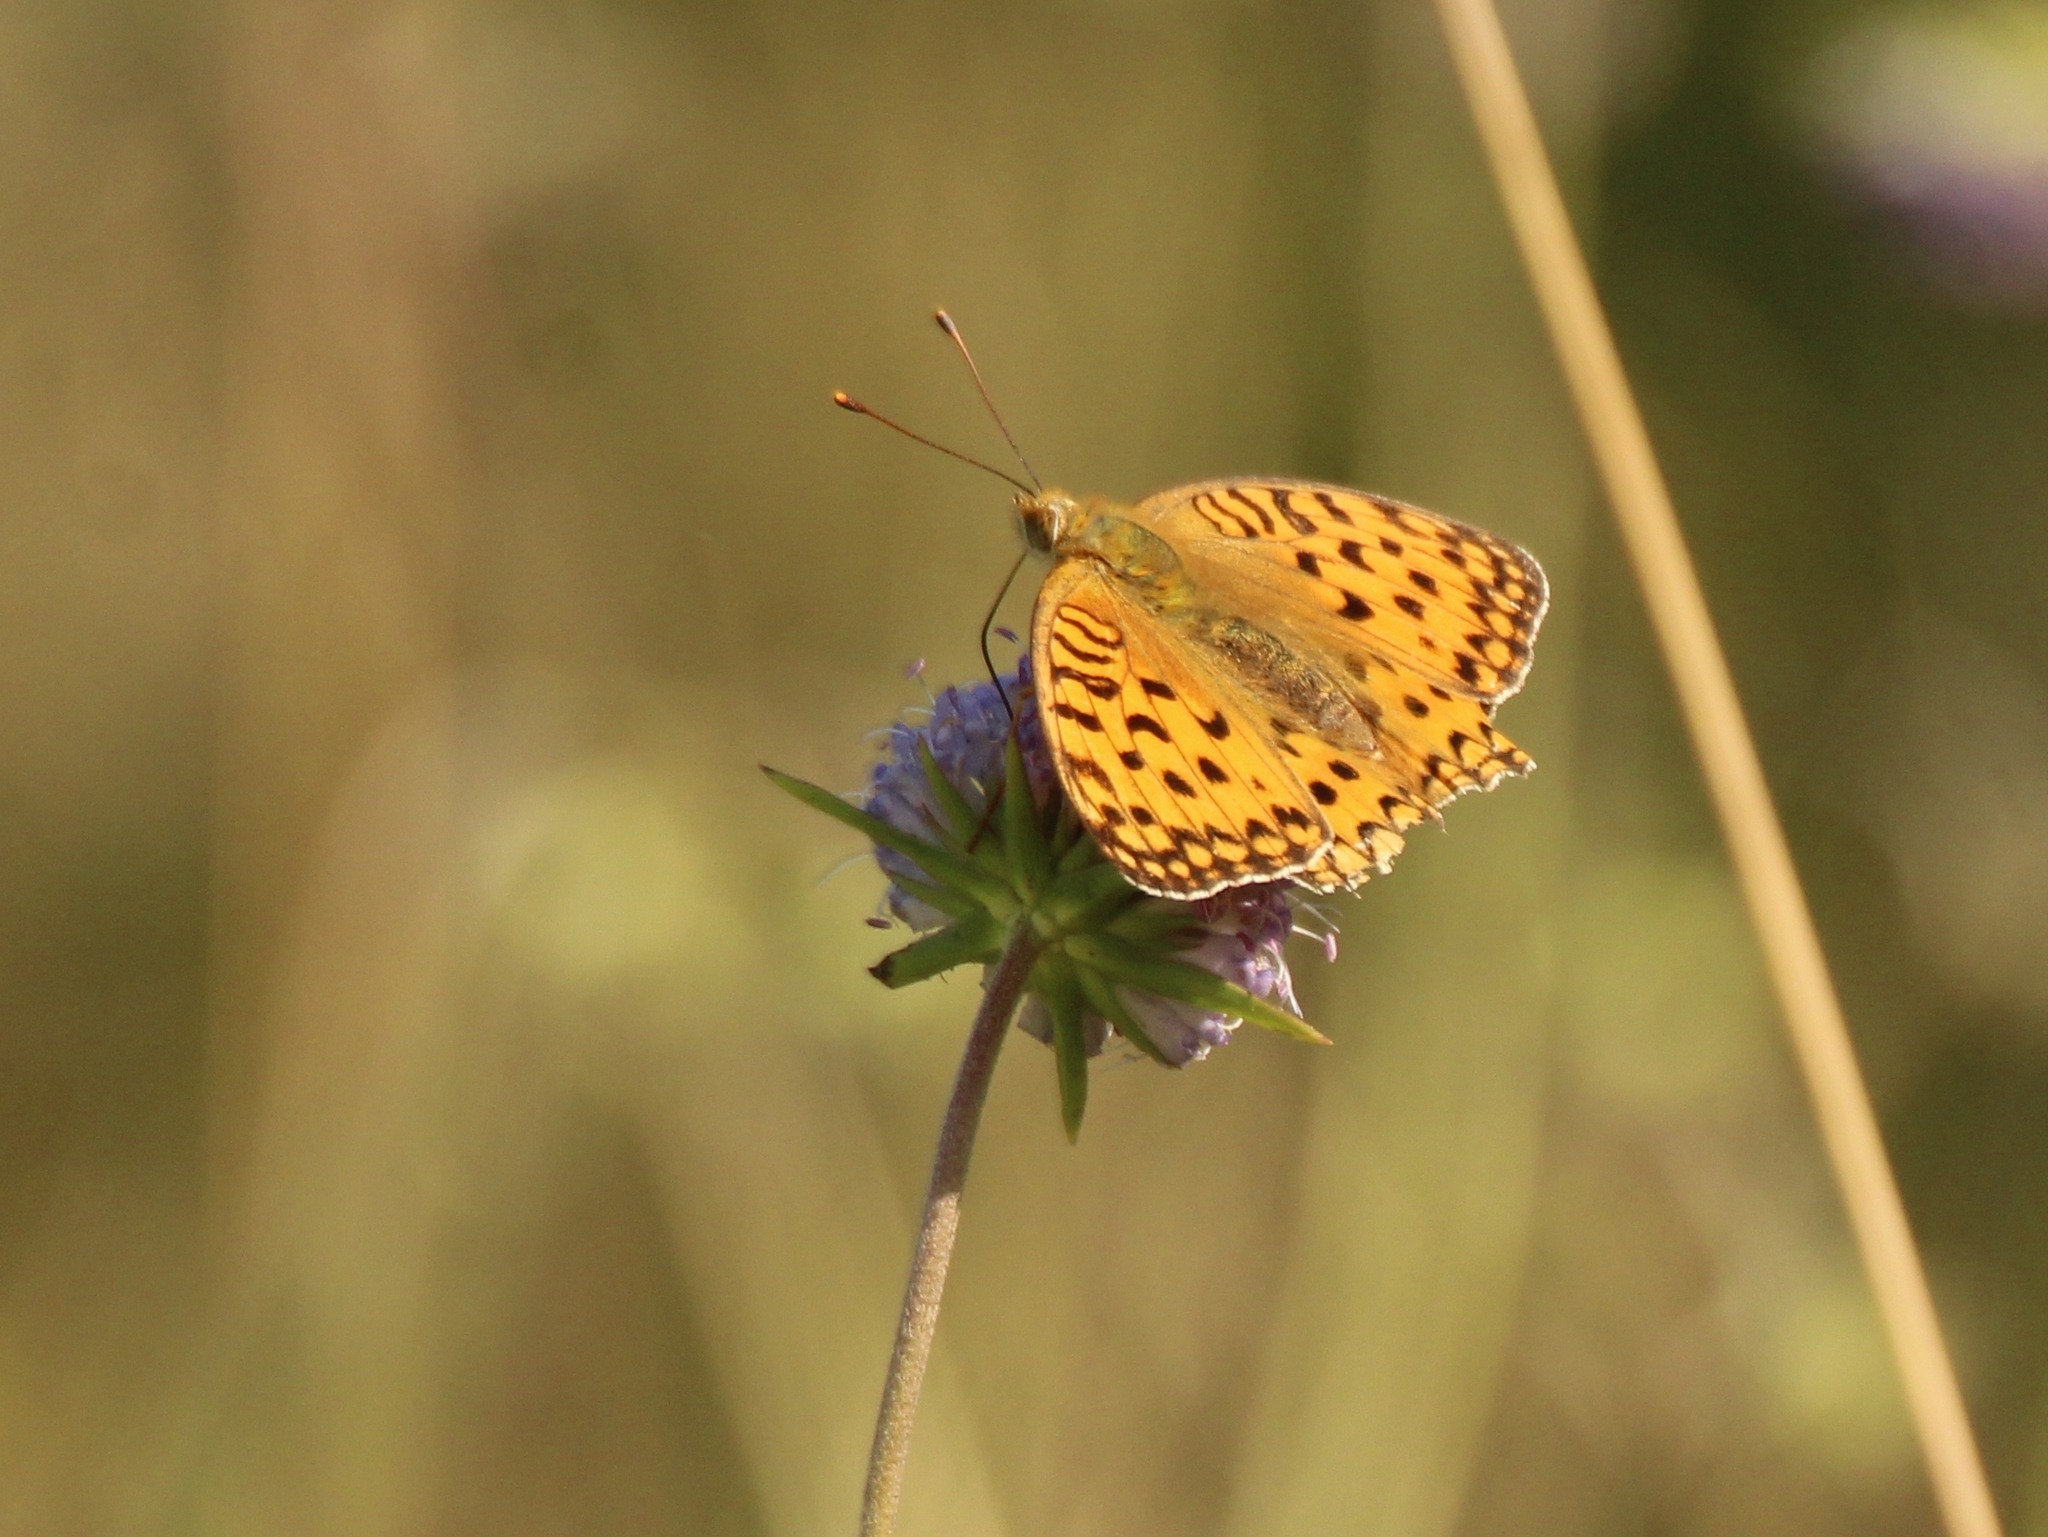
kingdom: Animalia
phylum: Arthropoda
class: Insecta
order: Lepidoptera
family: Nymphalidae
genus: Fabriciana
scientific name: Fabriciana adippe
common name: High brown fritillary
